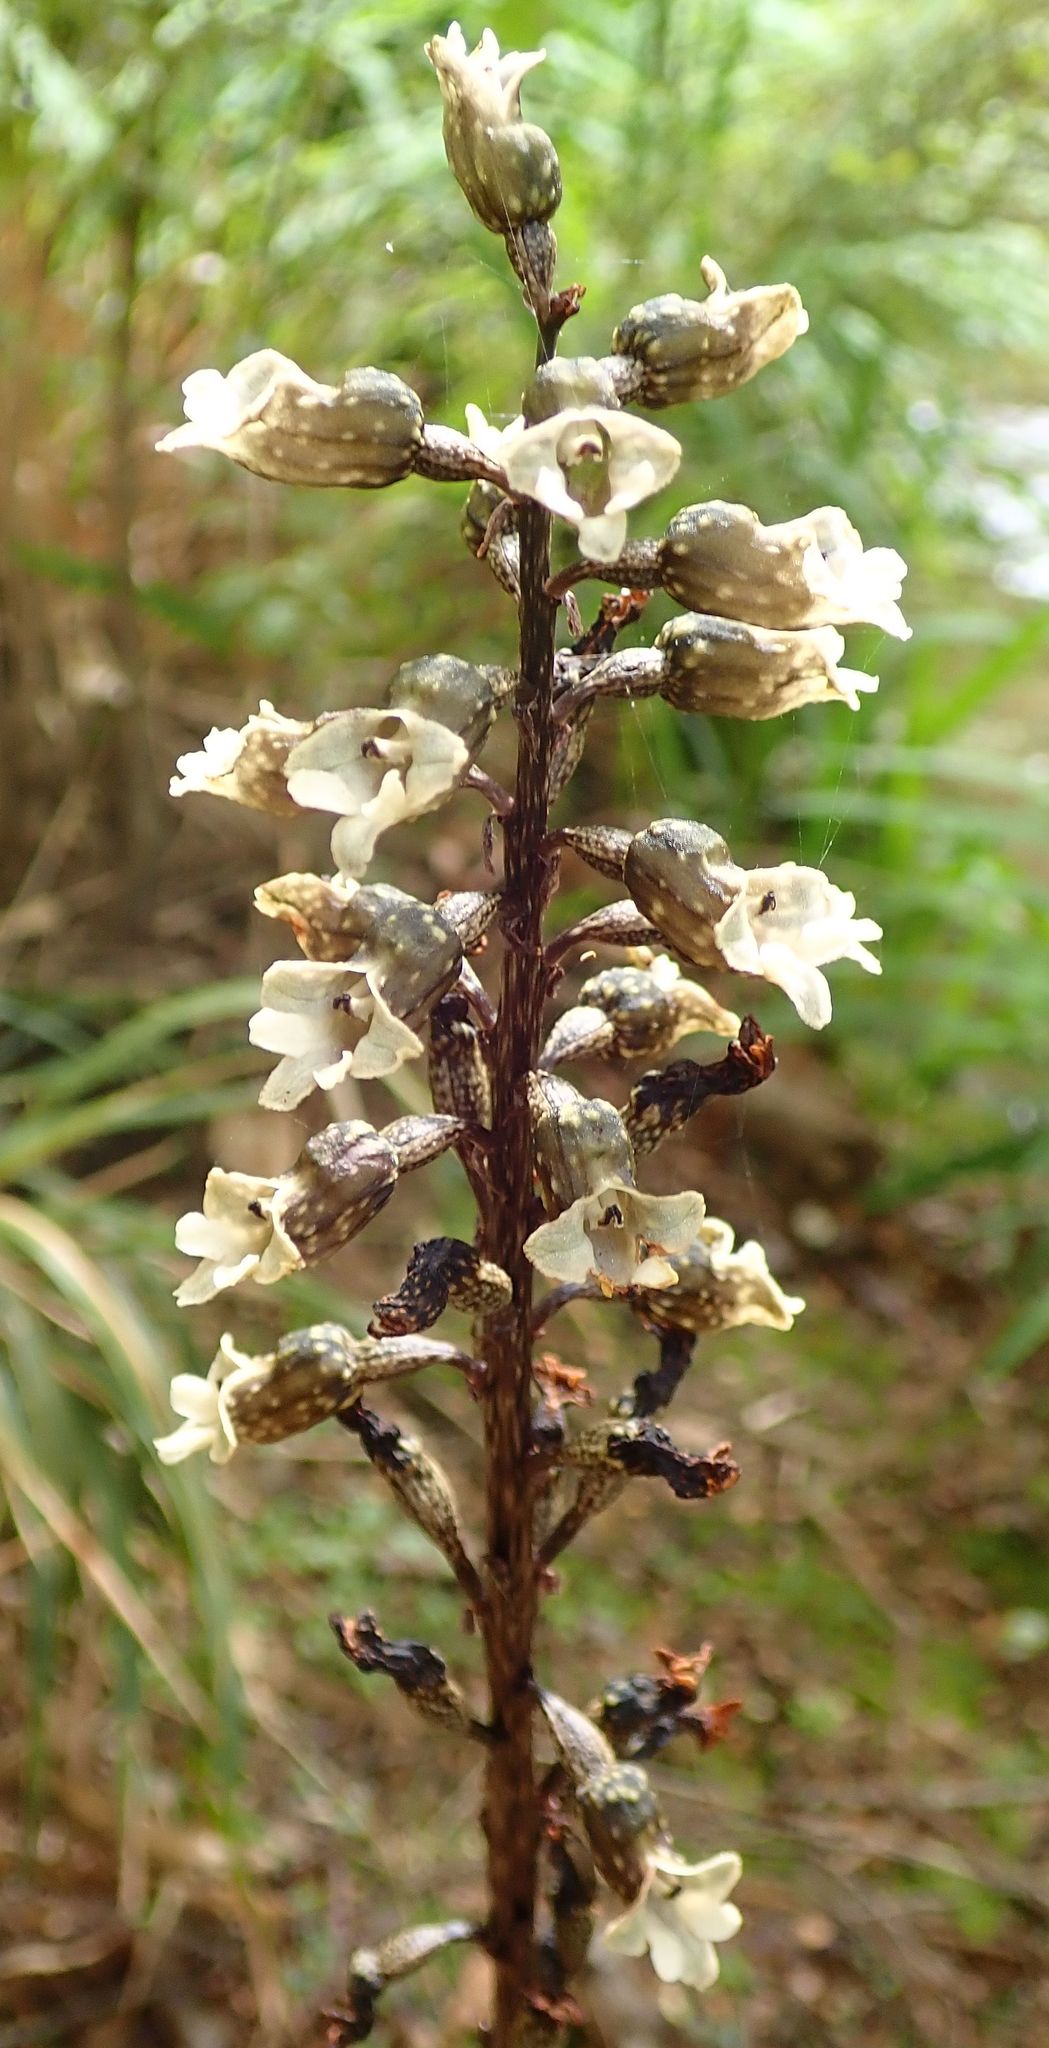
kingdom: Plantae
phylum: Tracheophyta
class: Liliopsida
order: Asparagales
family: Orchidaceae
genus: Gastrodia
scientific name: Gastrodia cunninghamii
